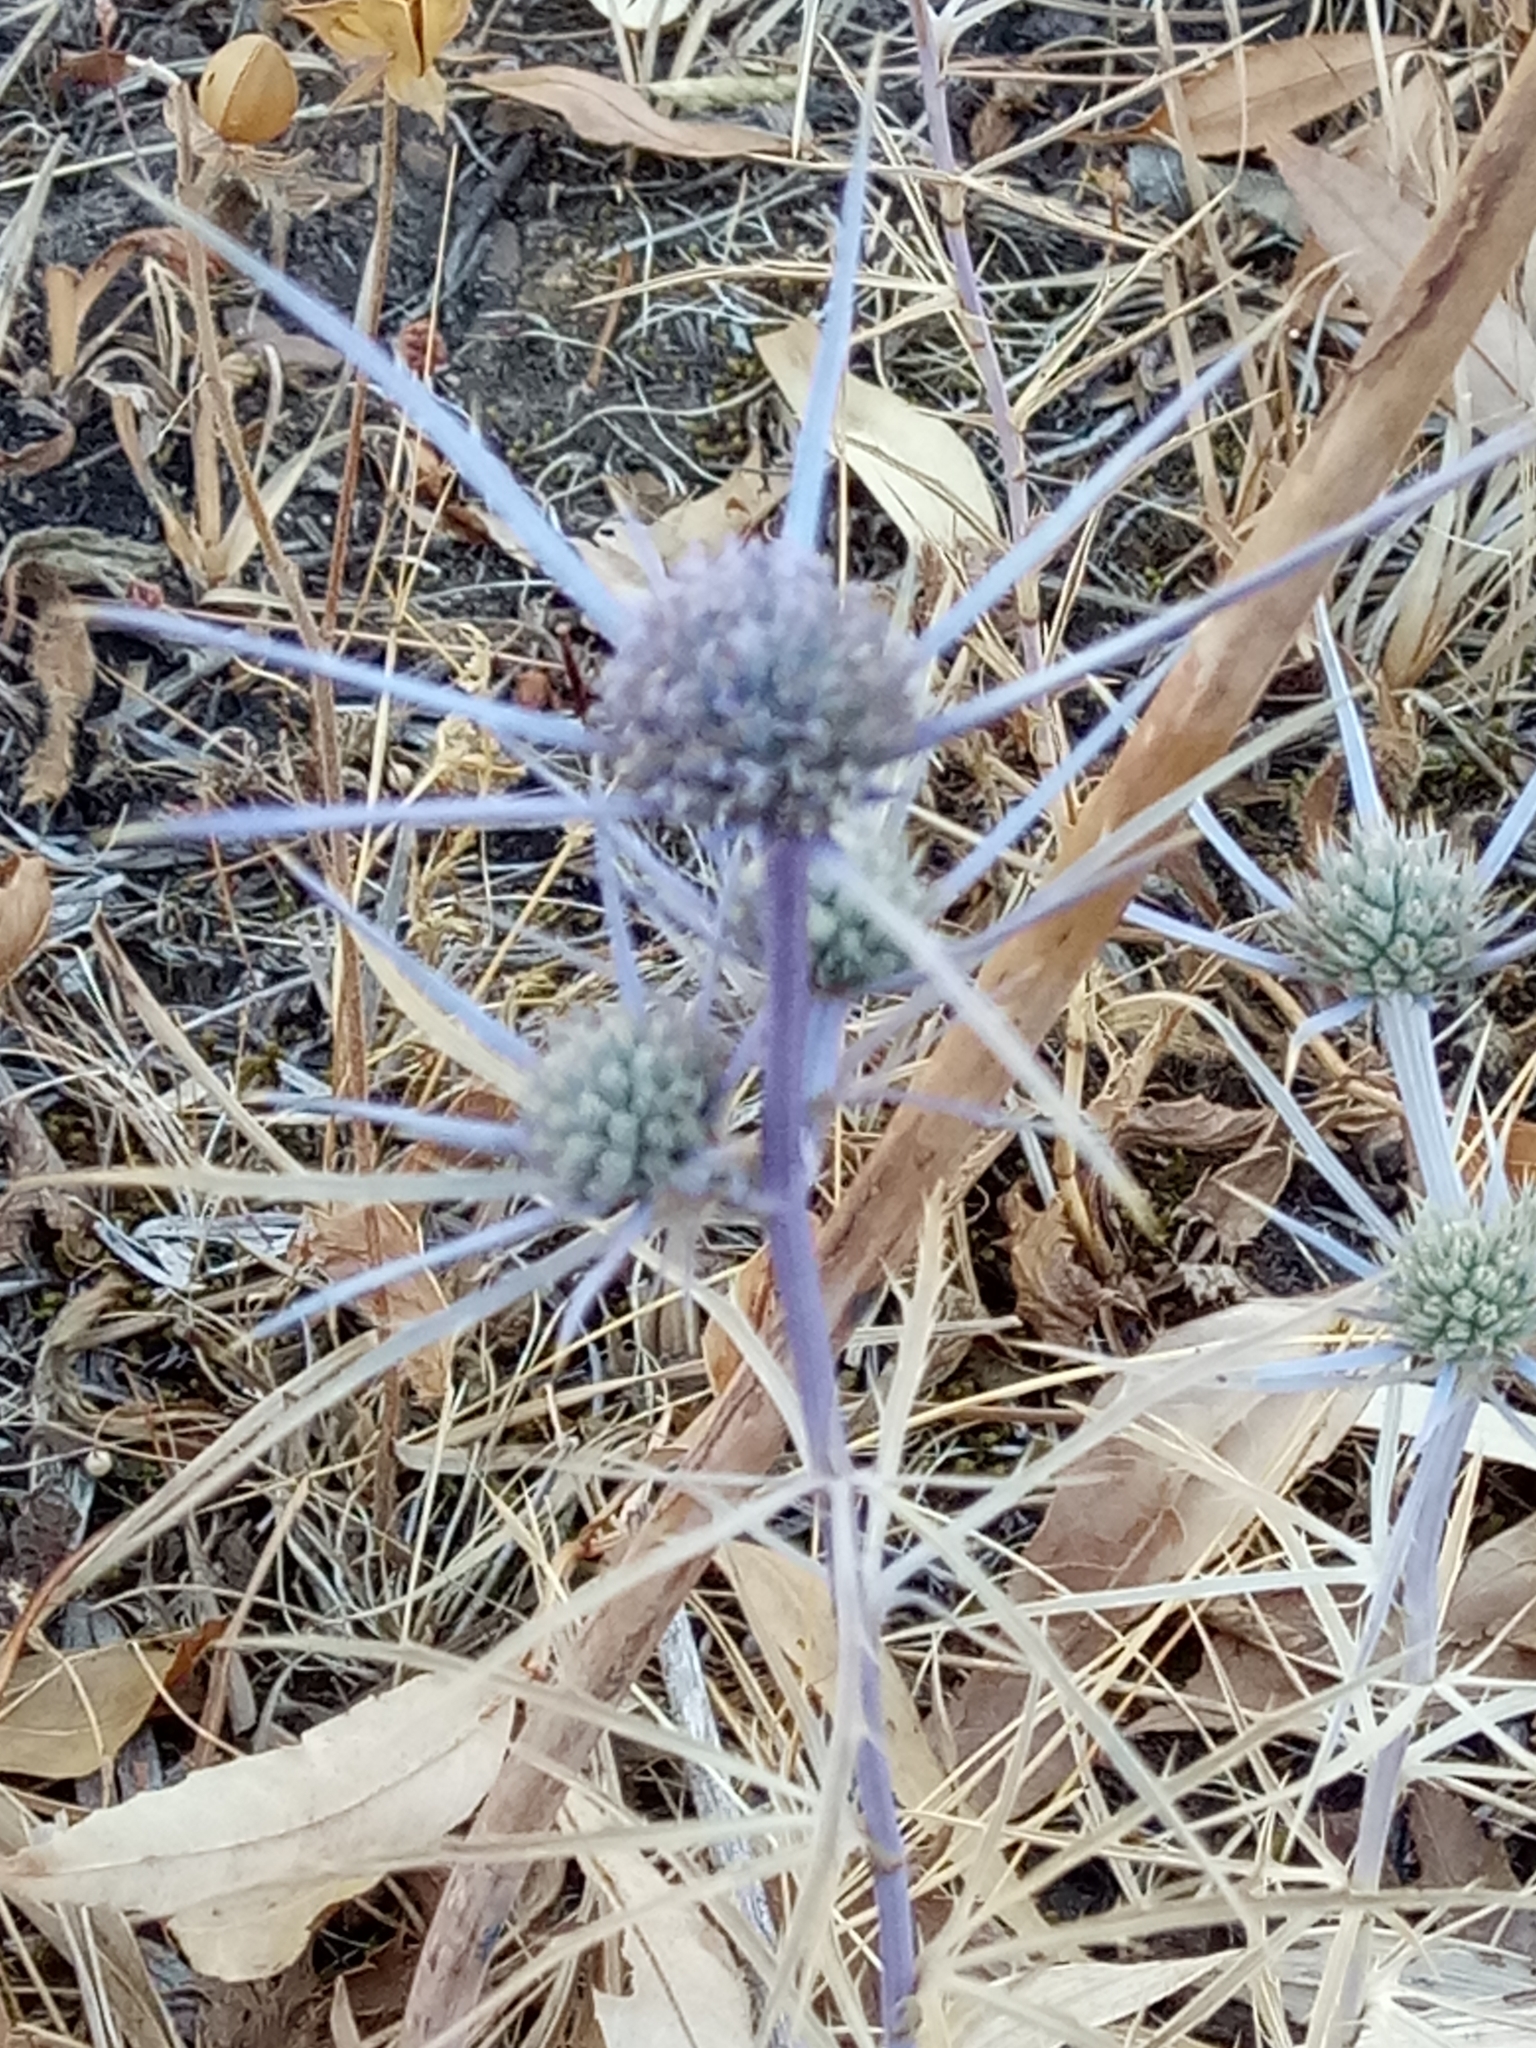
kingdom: Plantae
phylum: Tracheophyta
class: Magnoliopsida
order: Apiales
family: Apiaceae
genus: Eryngium
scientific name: Eryngium tricuspidatum
